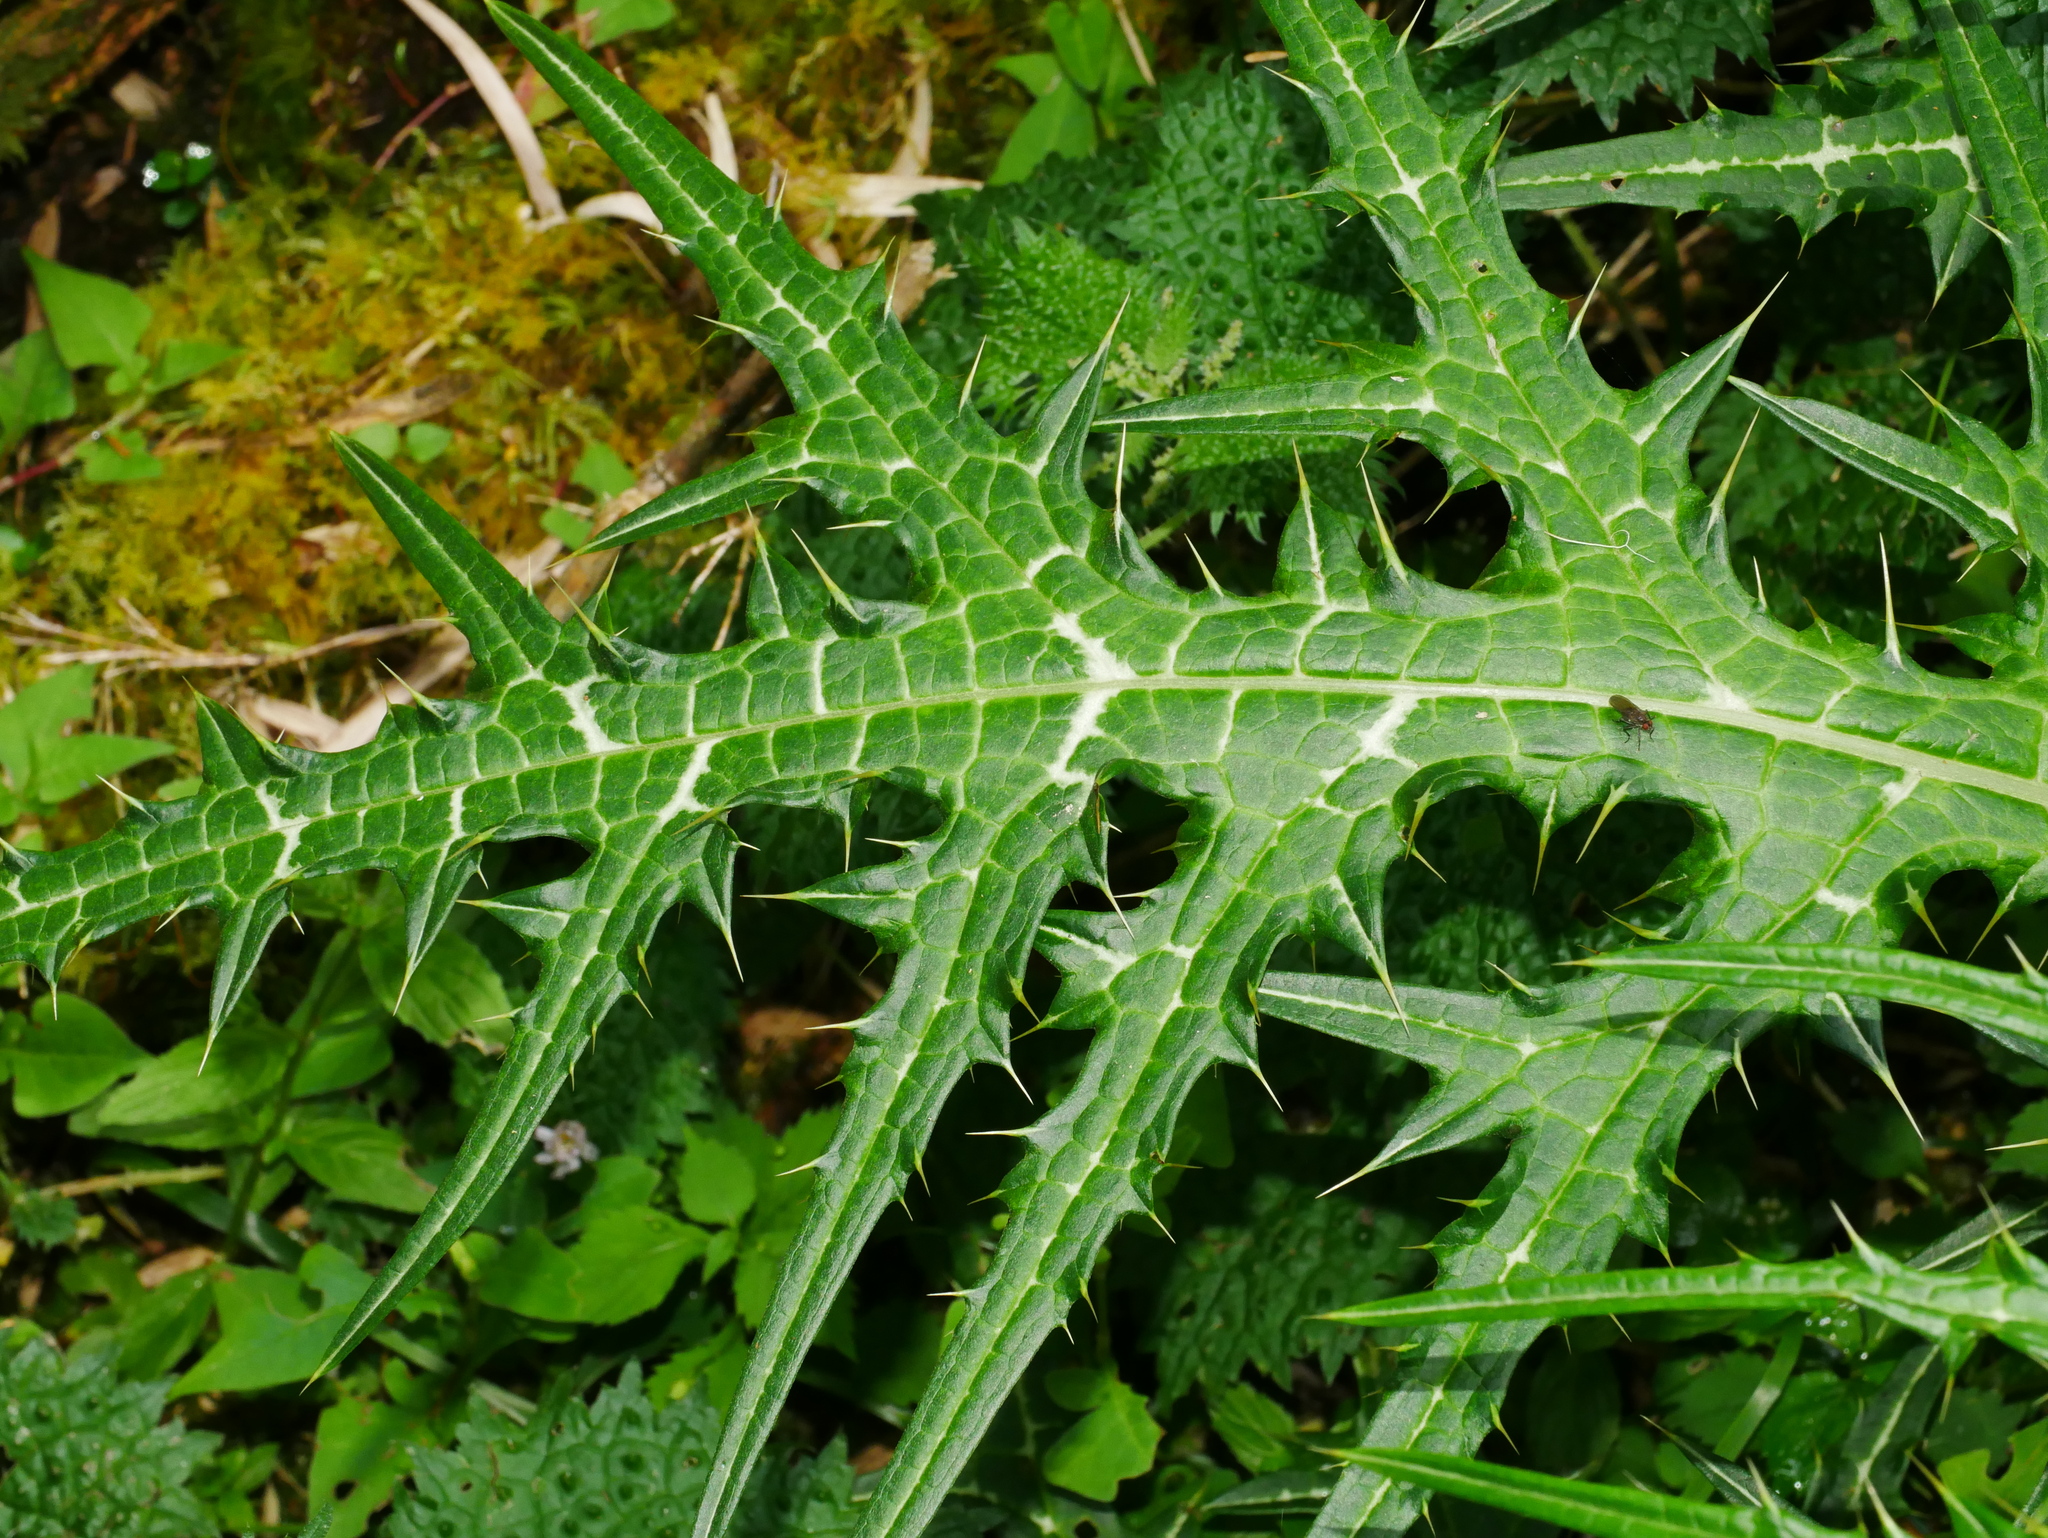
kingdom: Plantae
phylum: Tracheophyta
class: Magnoliopsida
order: Asterales
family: Asteraceae
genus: Cirsium
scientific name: Cirsium japonicum
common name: Japanese thistle
